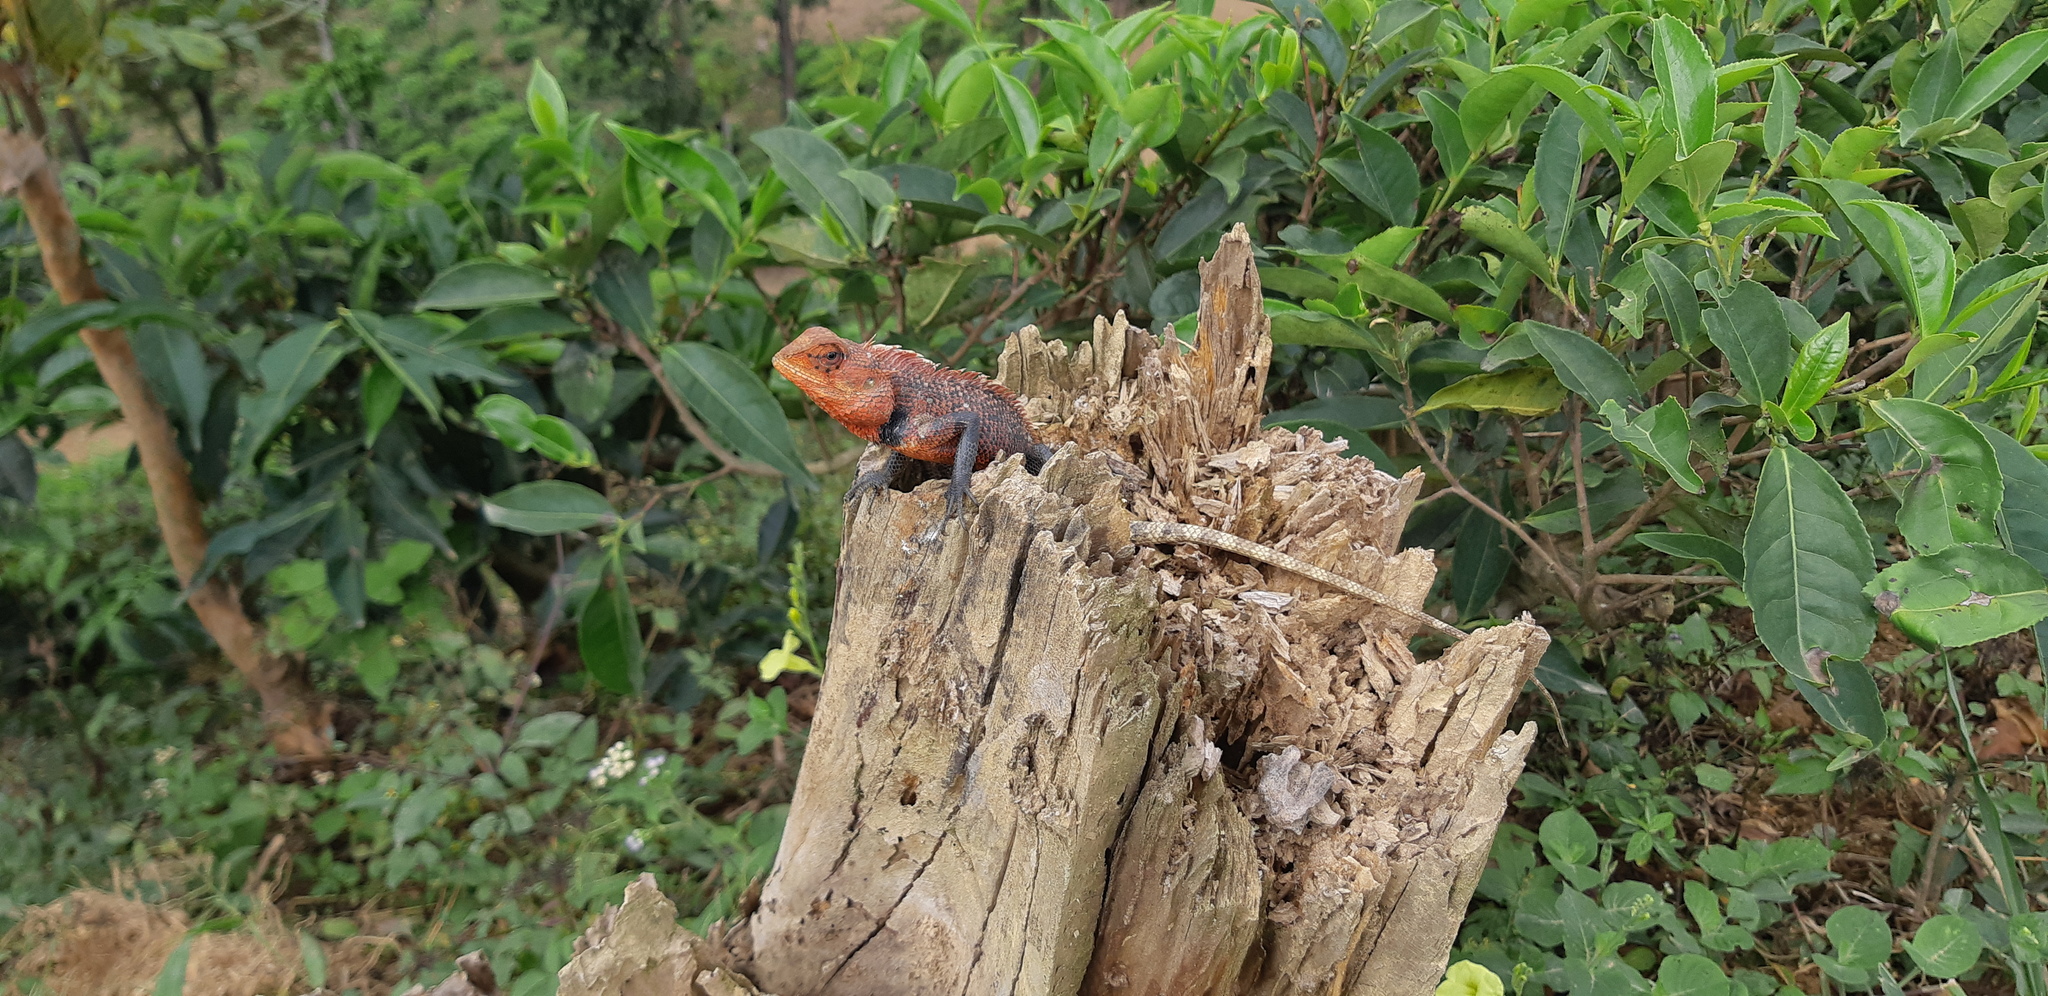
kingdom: Animalia
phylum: Chordata
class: Squamata
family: Agamidae
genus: Calotes
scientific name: Calotes versicolor
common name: Oriental garden lizard
